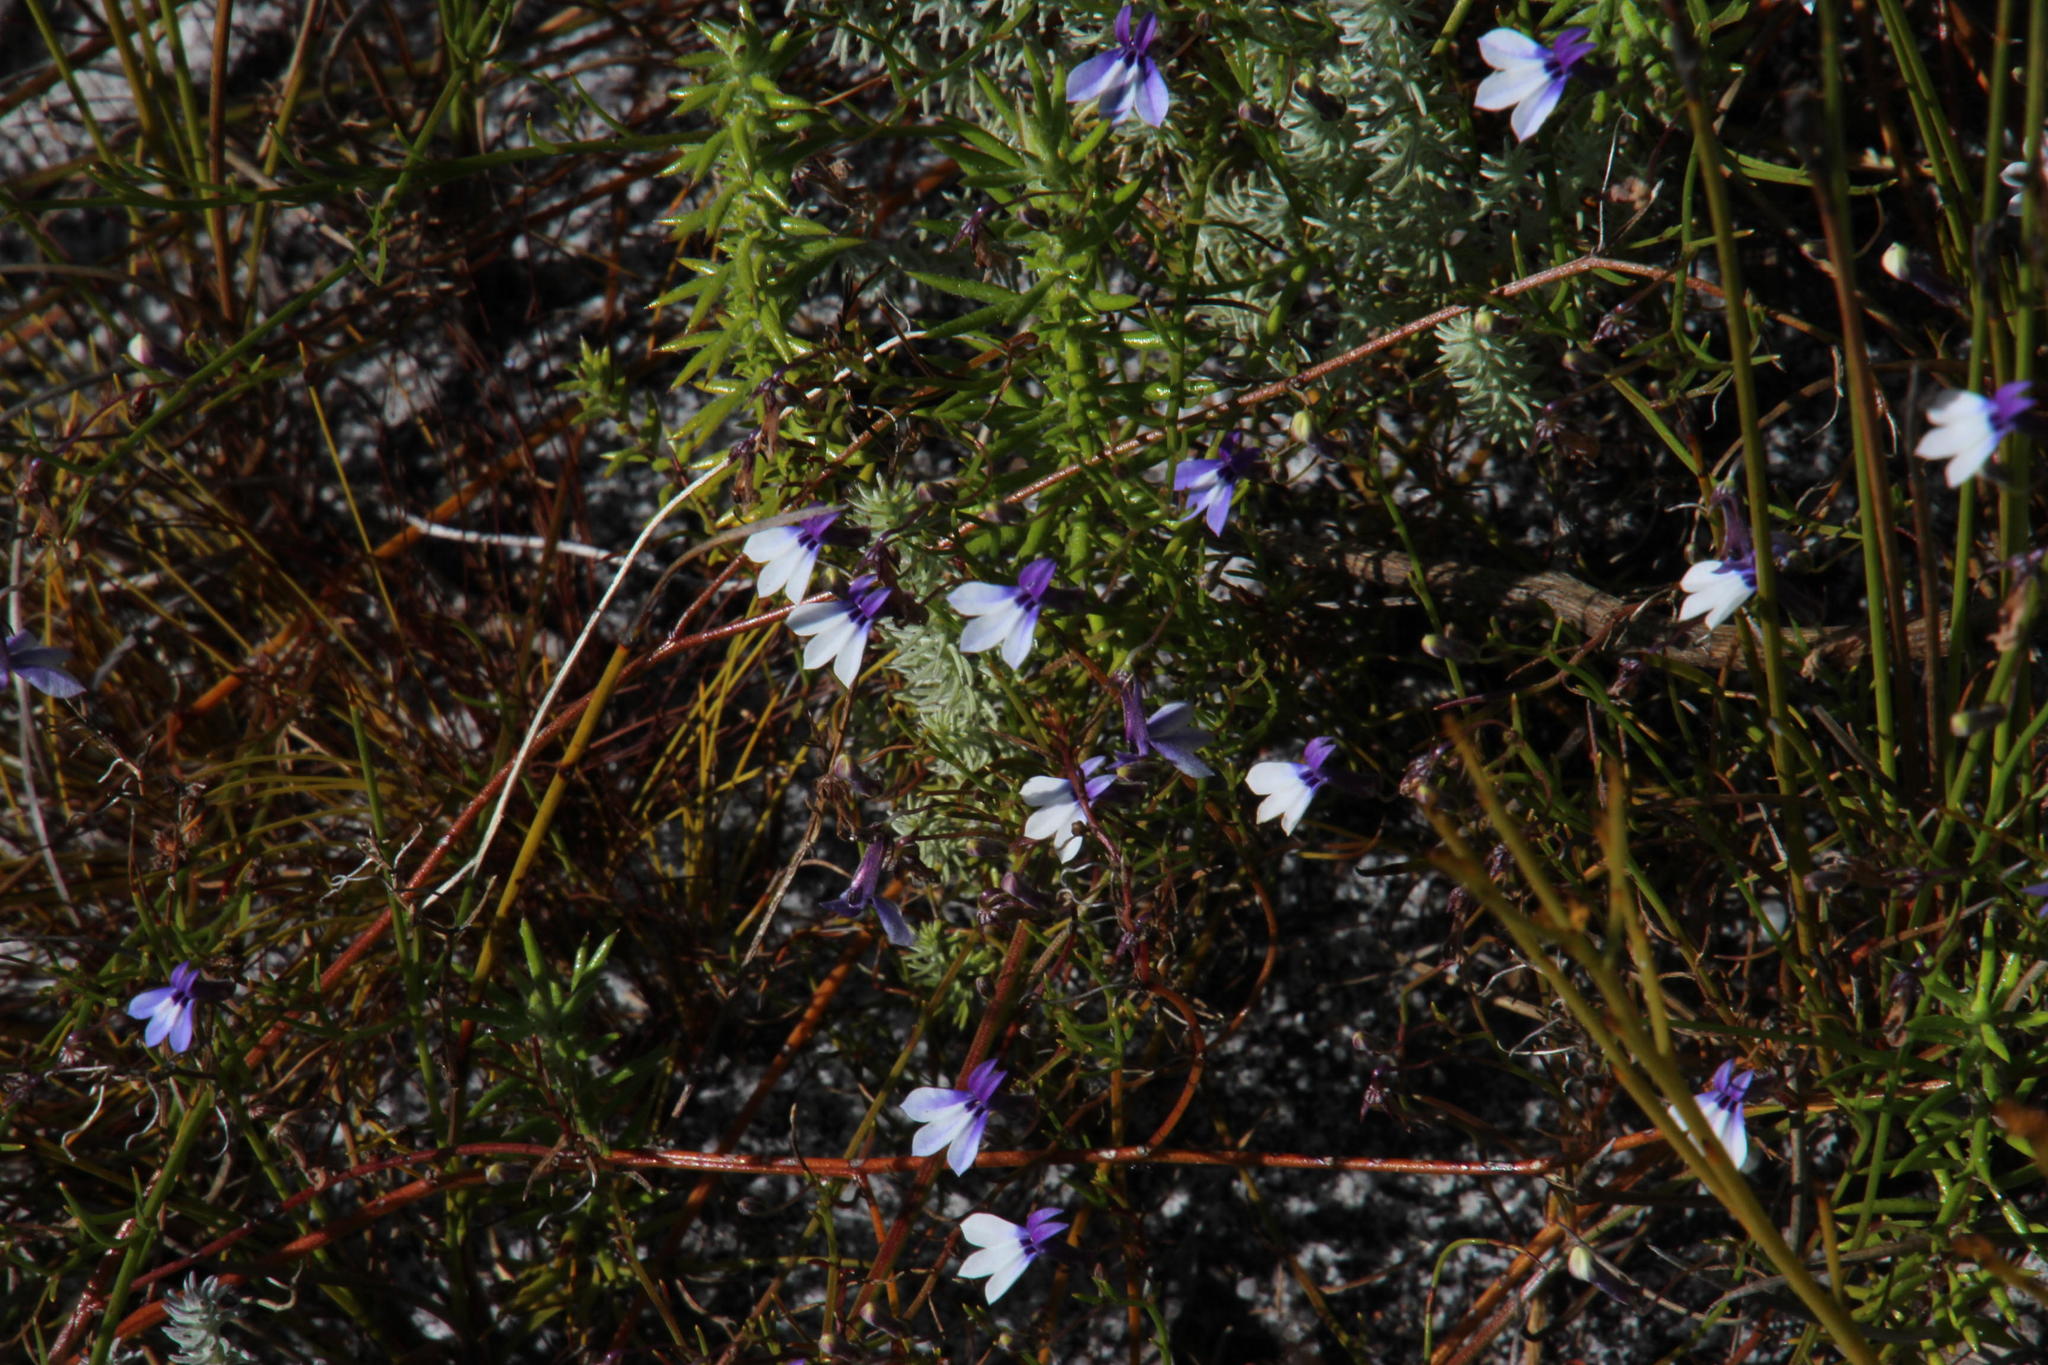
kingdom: Plantae
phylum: Tracheophyta
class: Magnoliopsida
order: Asterales
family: Campanulaceae
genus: Lobelia
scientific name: Lobelia setacea
